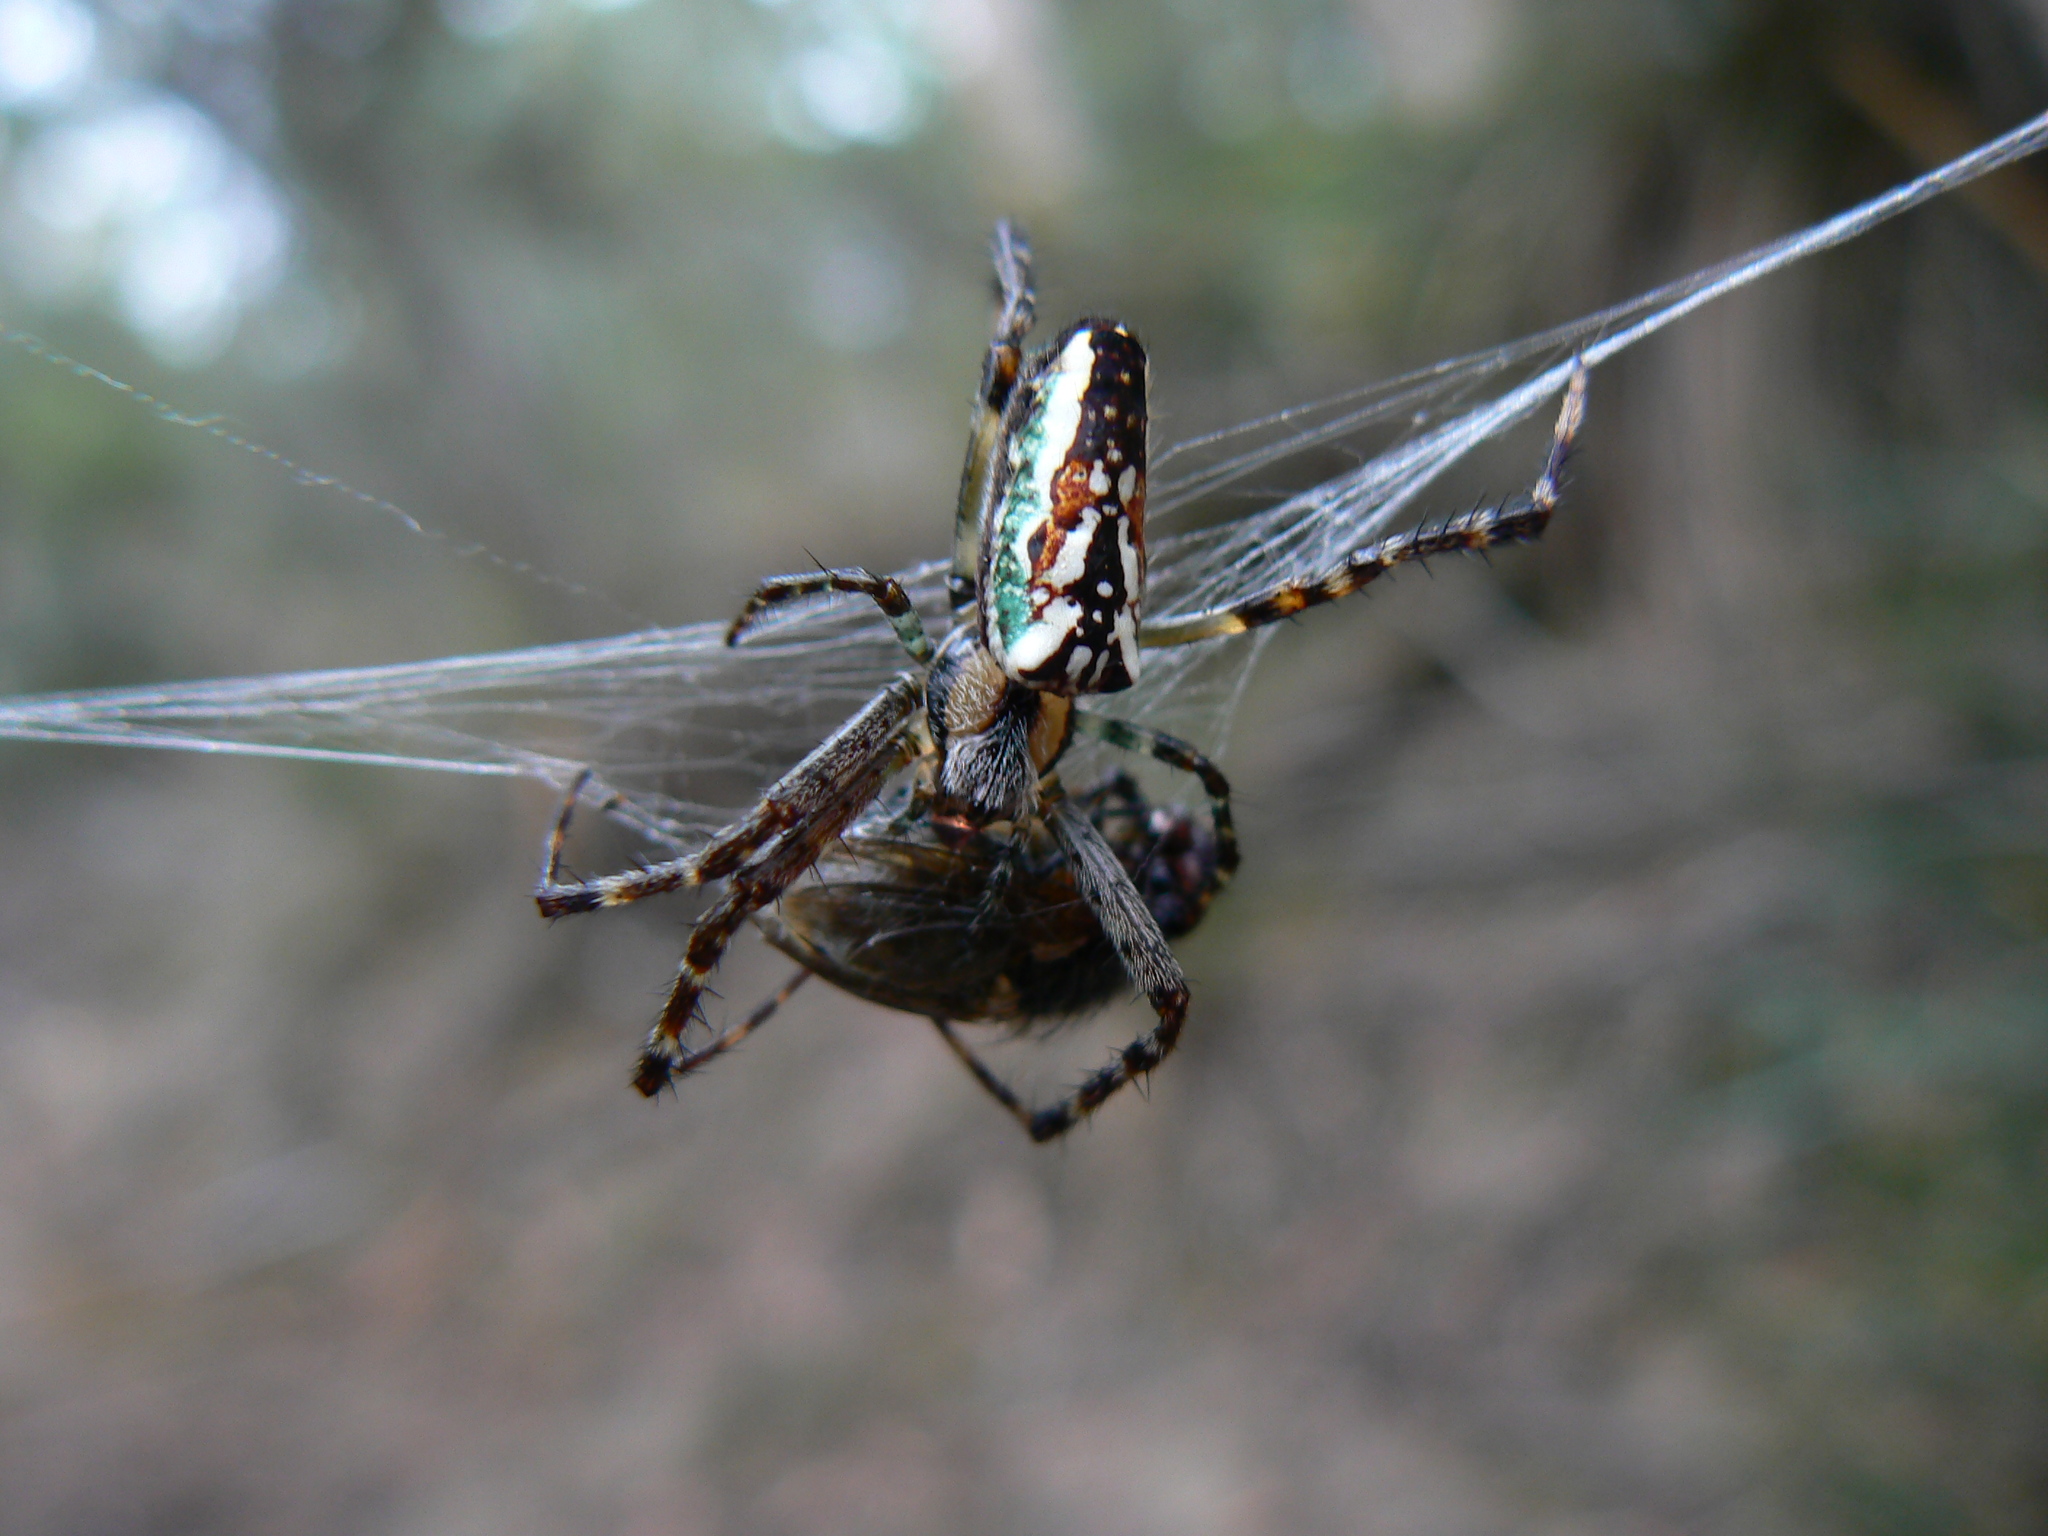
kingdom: Animalia
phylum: Arthropoda
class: Arachnida
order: Araneae
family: Araneidae
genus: Plebs
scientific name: Plebs bradleyi
